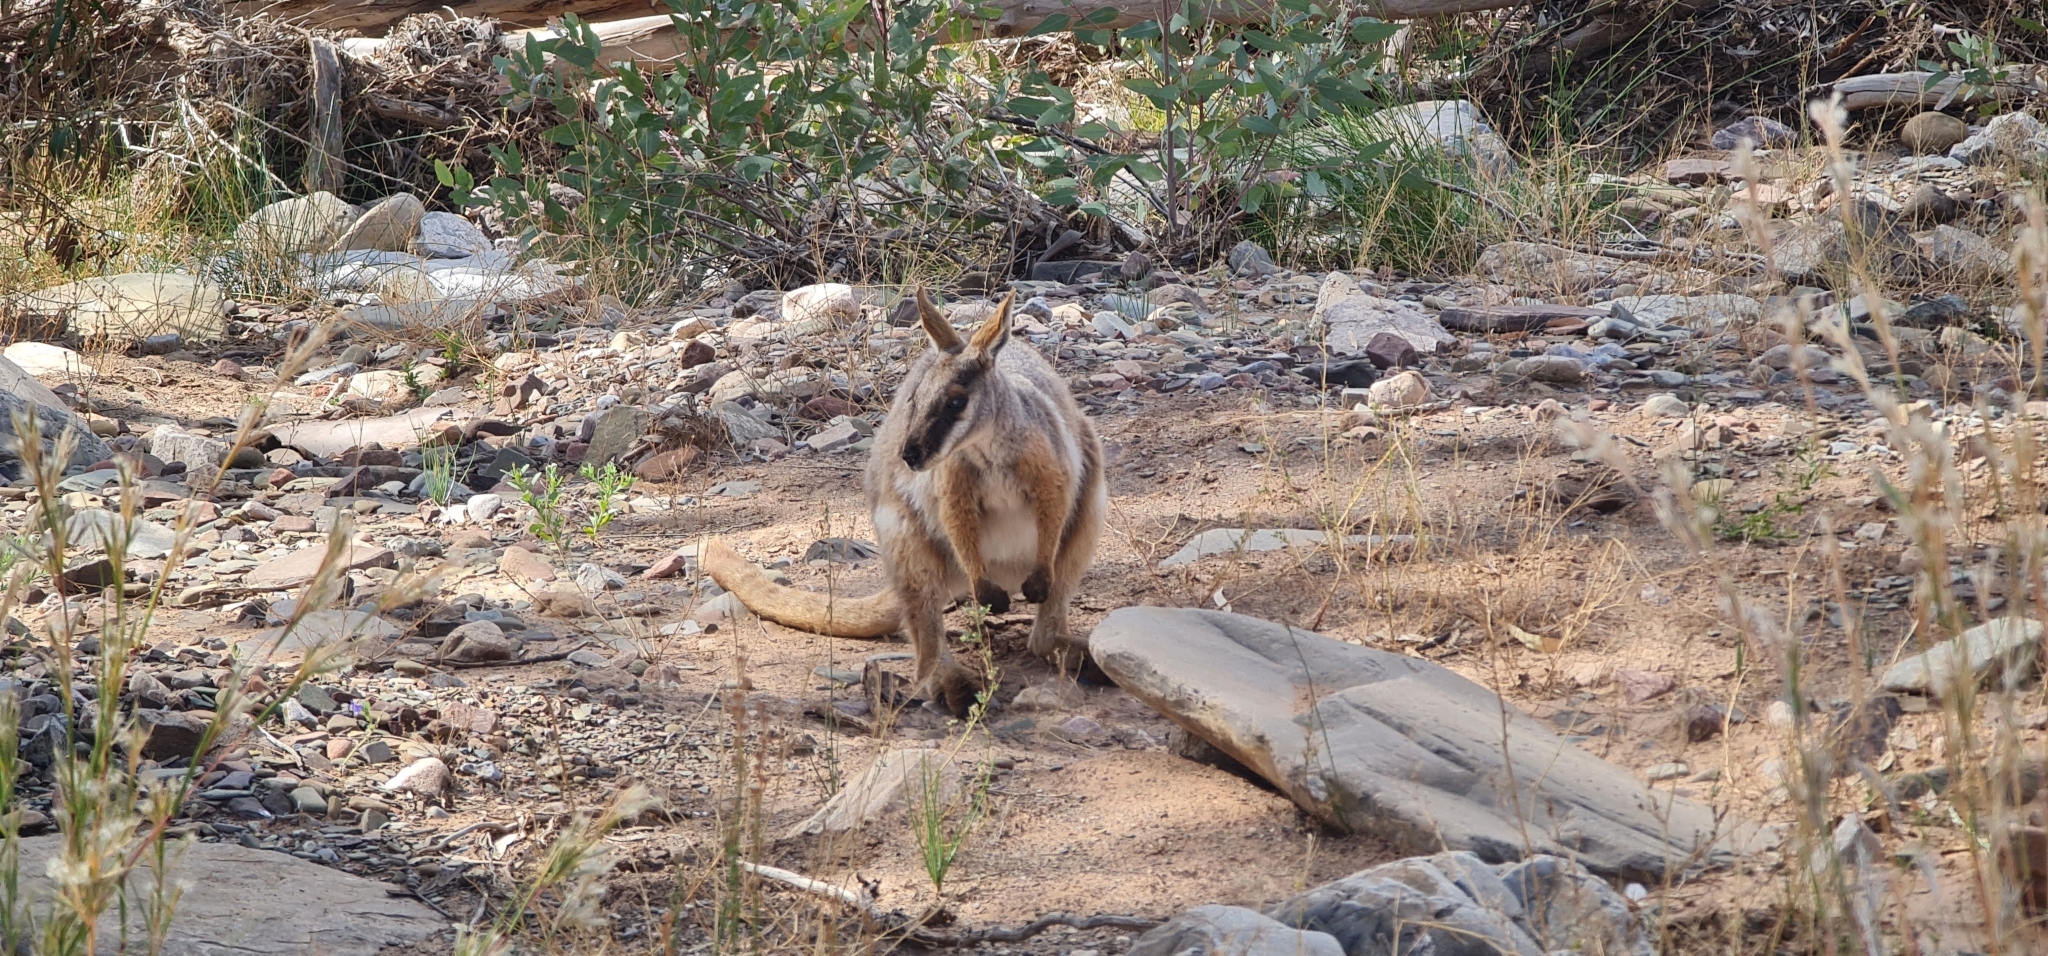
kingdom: Animalia
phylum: Chordata
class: Mammalia
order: Diprotodontia
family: Macropodidae
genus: Petrogale
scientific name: Petrogale xanthopus
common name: Yellow-footed rock-wallaby
